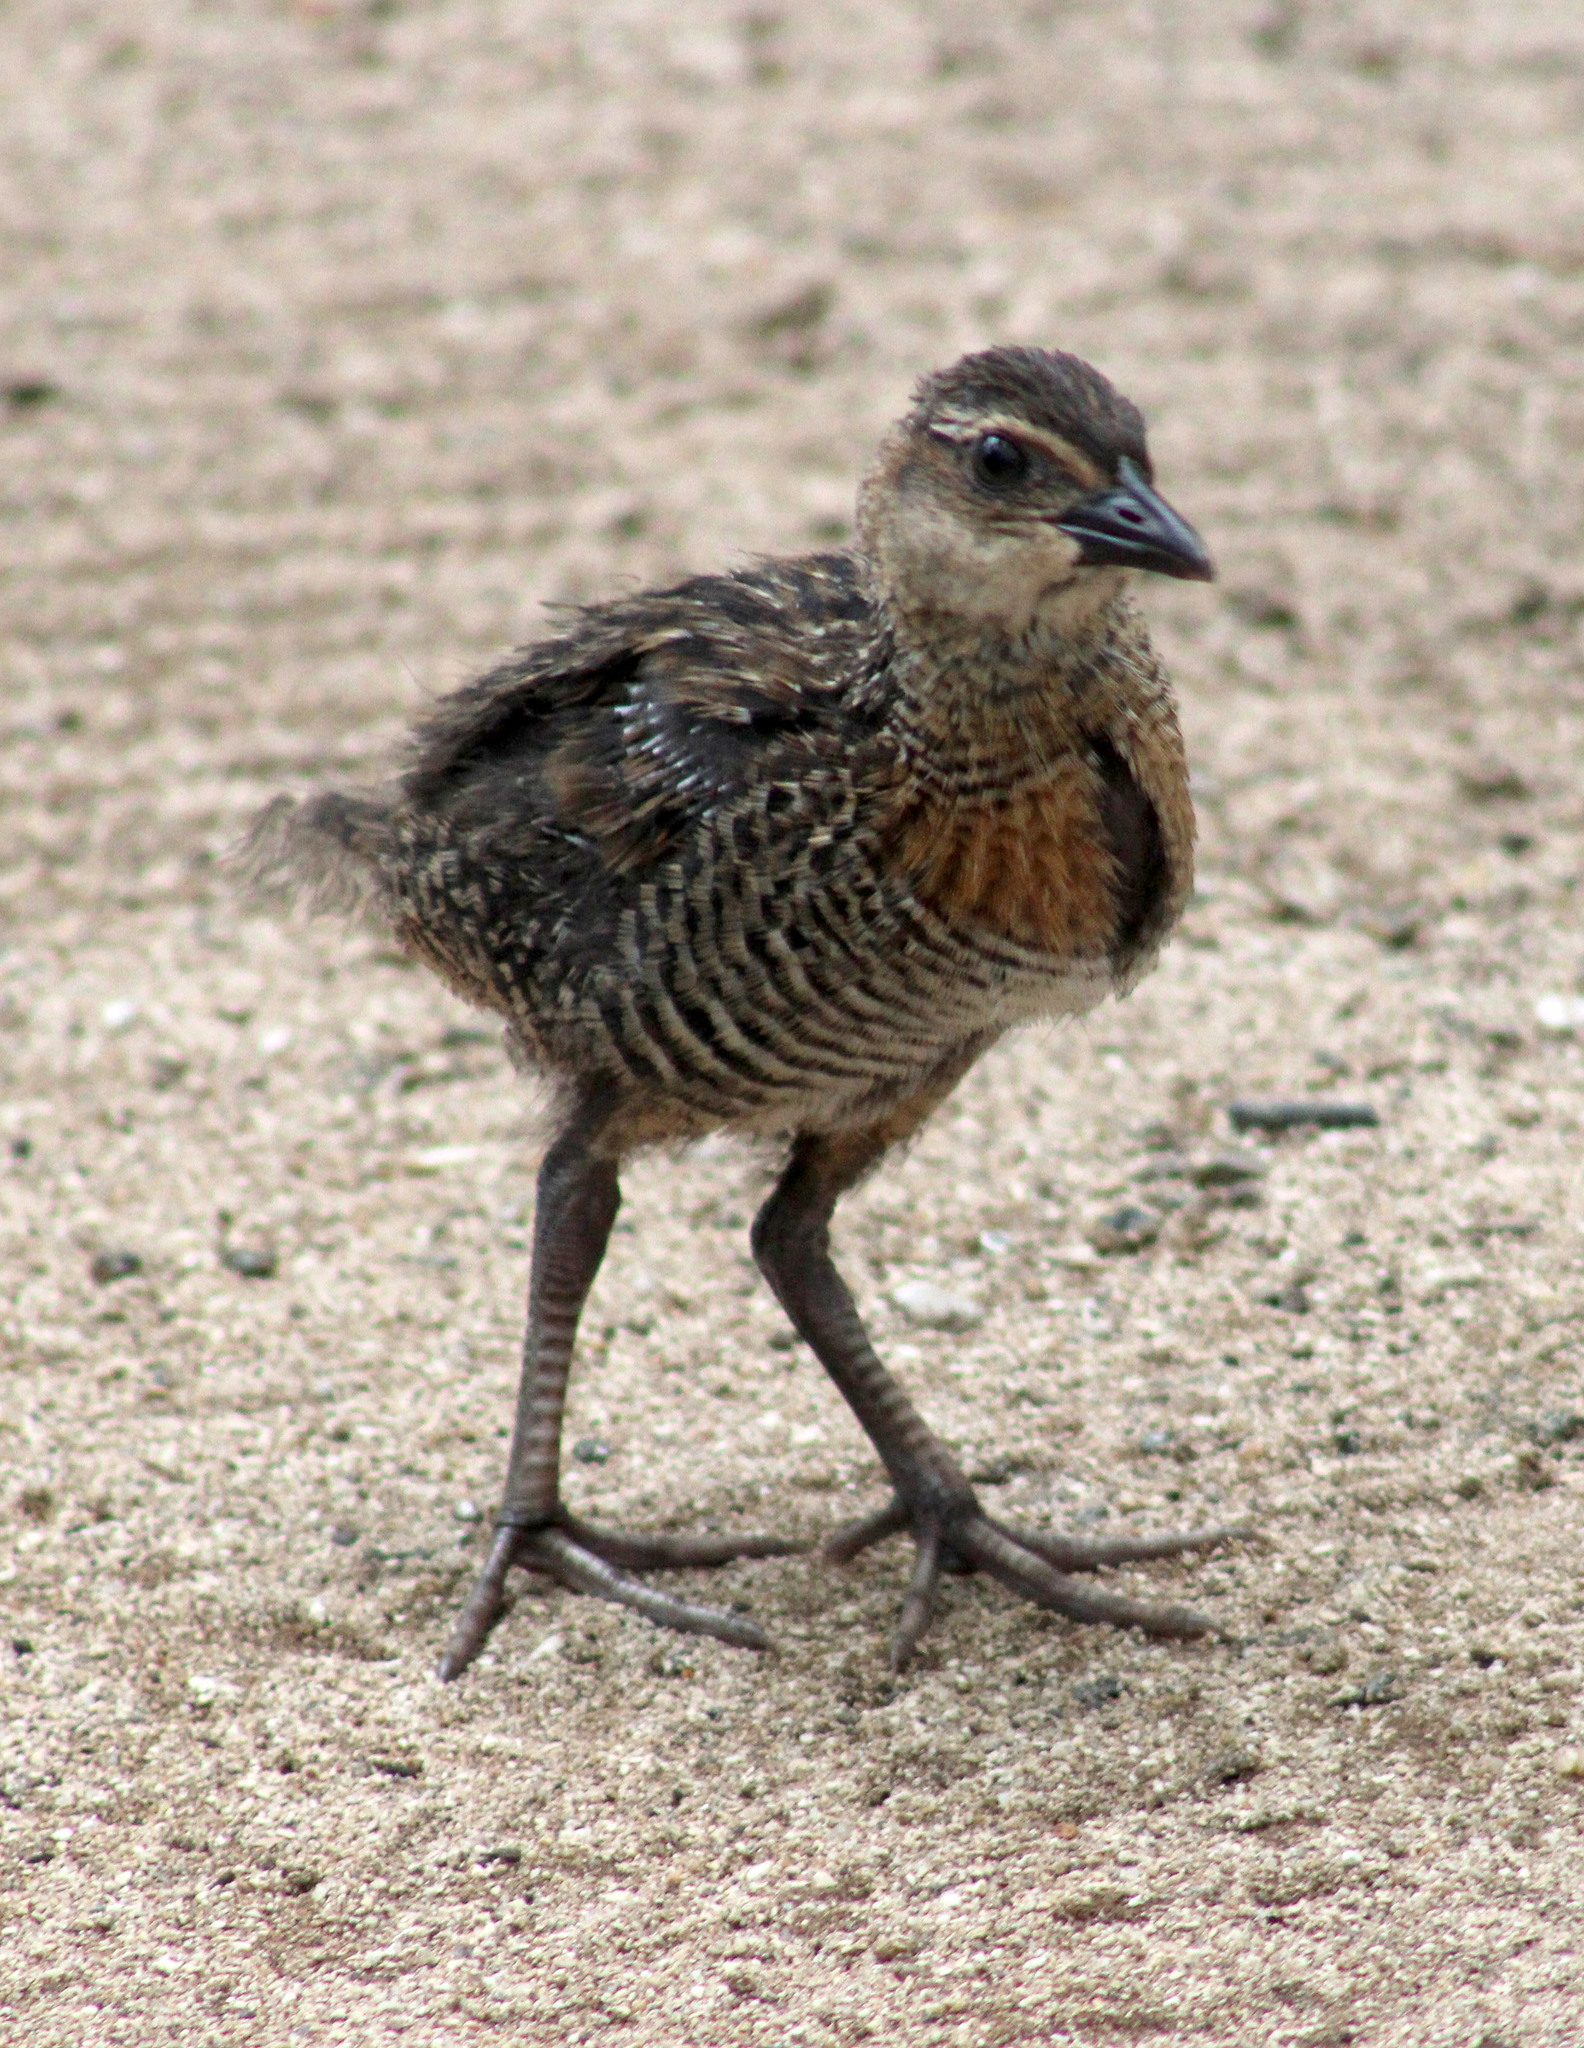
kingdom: Animalia
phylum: Chordata
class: Aves
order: Gruiformes
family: Rallidae
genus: Gallirallus
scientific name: Gallirallus philippensis
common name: Buff-banded rail
